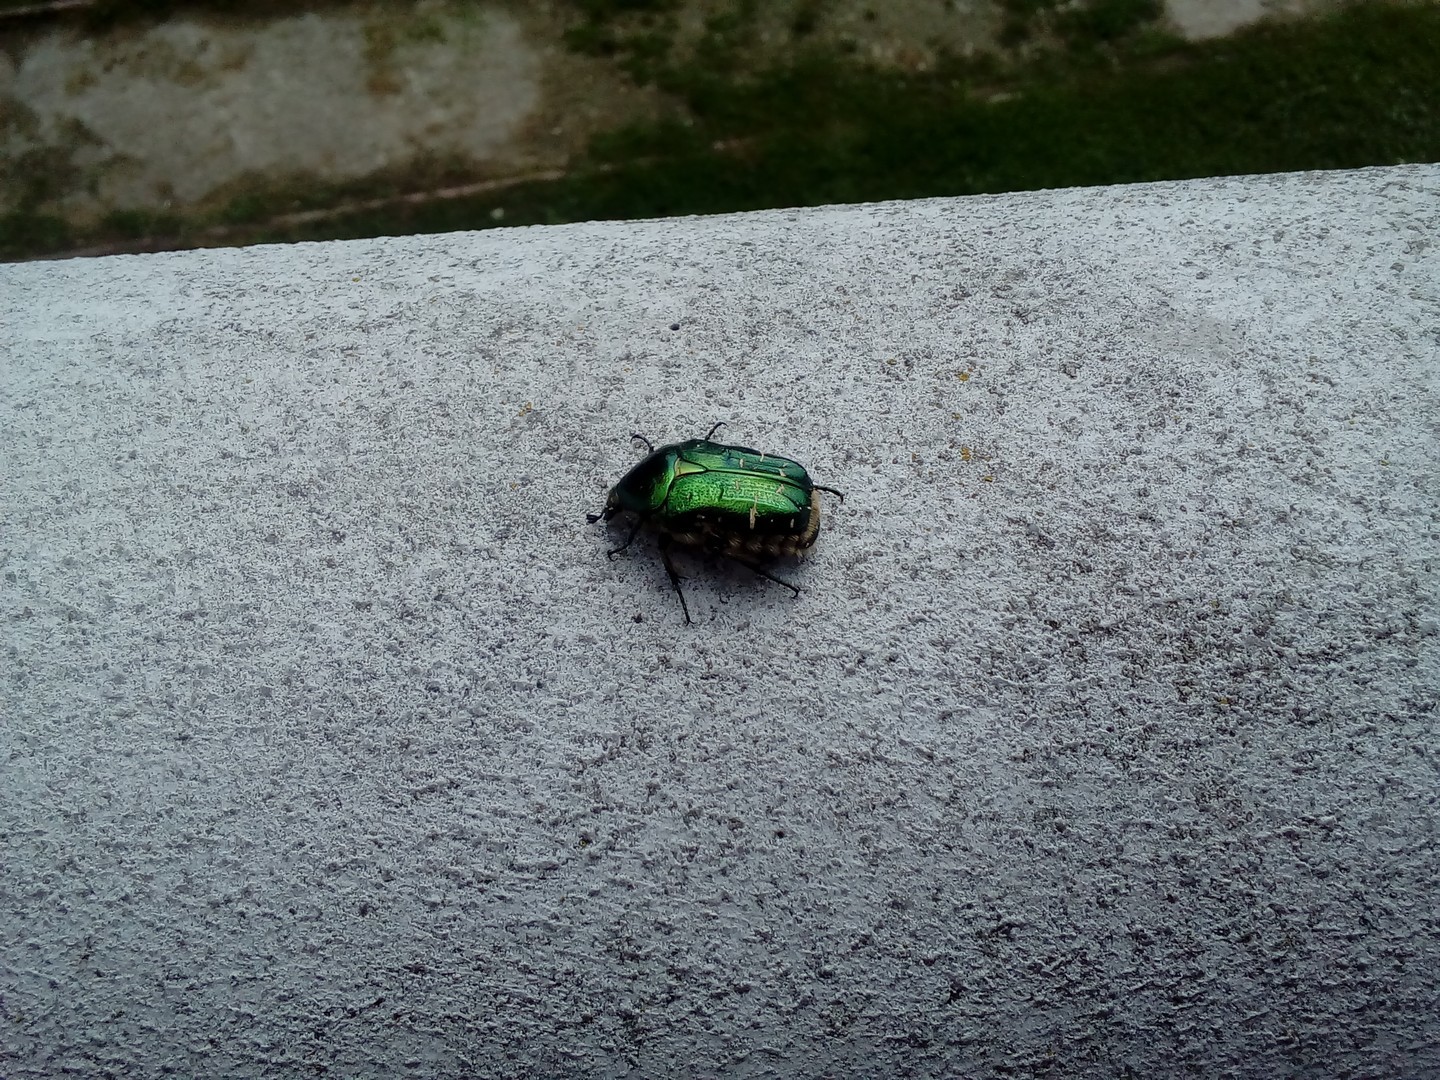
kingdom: Animalia
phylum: Arthropoda
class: Insecta
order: Coleoptera
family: Scarabaeidae
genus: Cetonia
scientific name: Cetonia aurata
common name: Rose chafer
